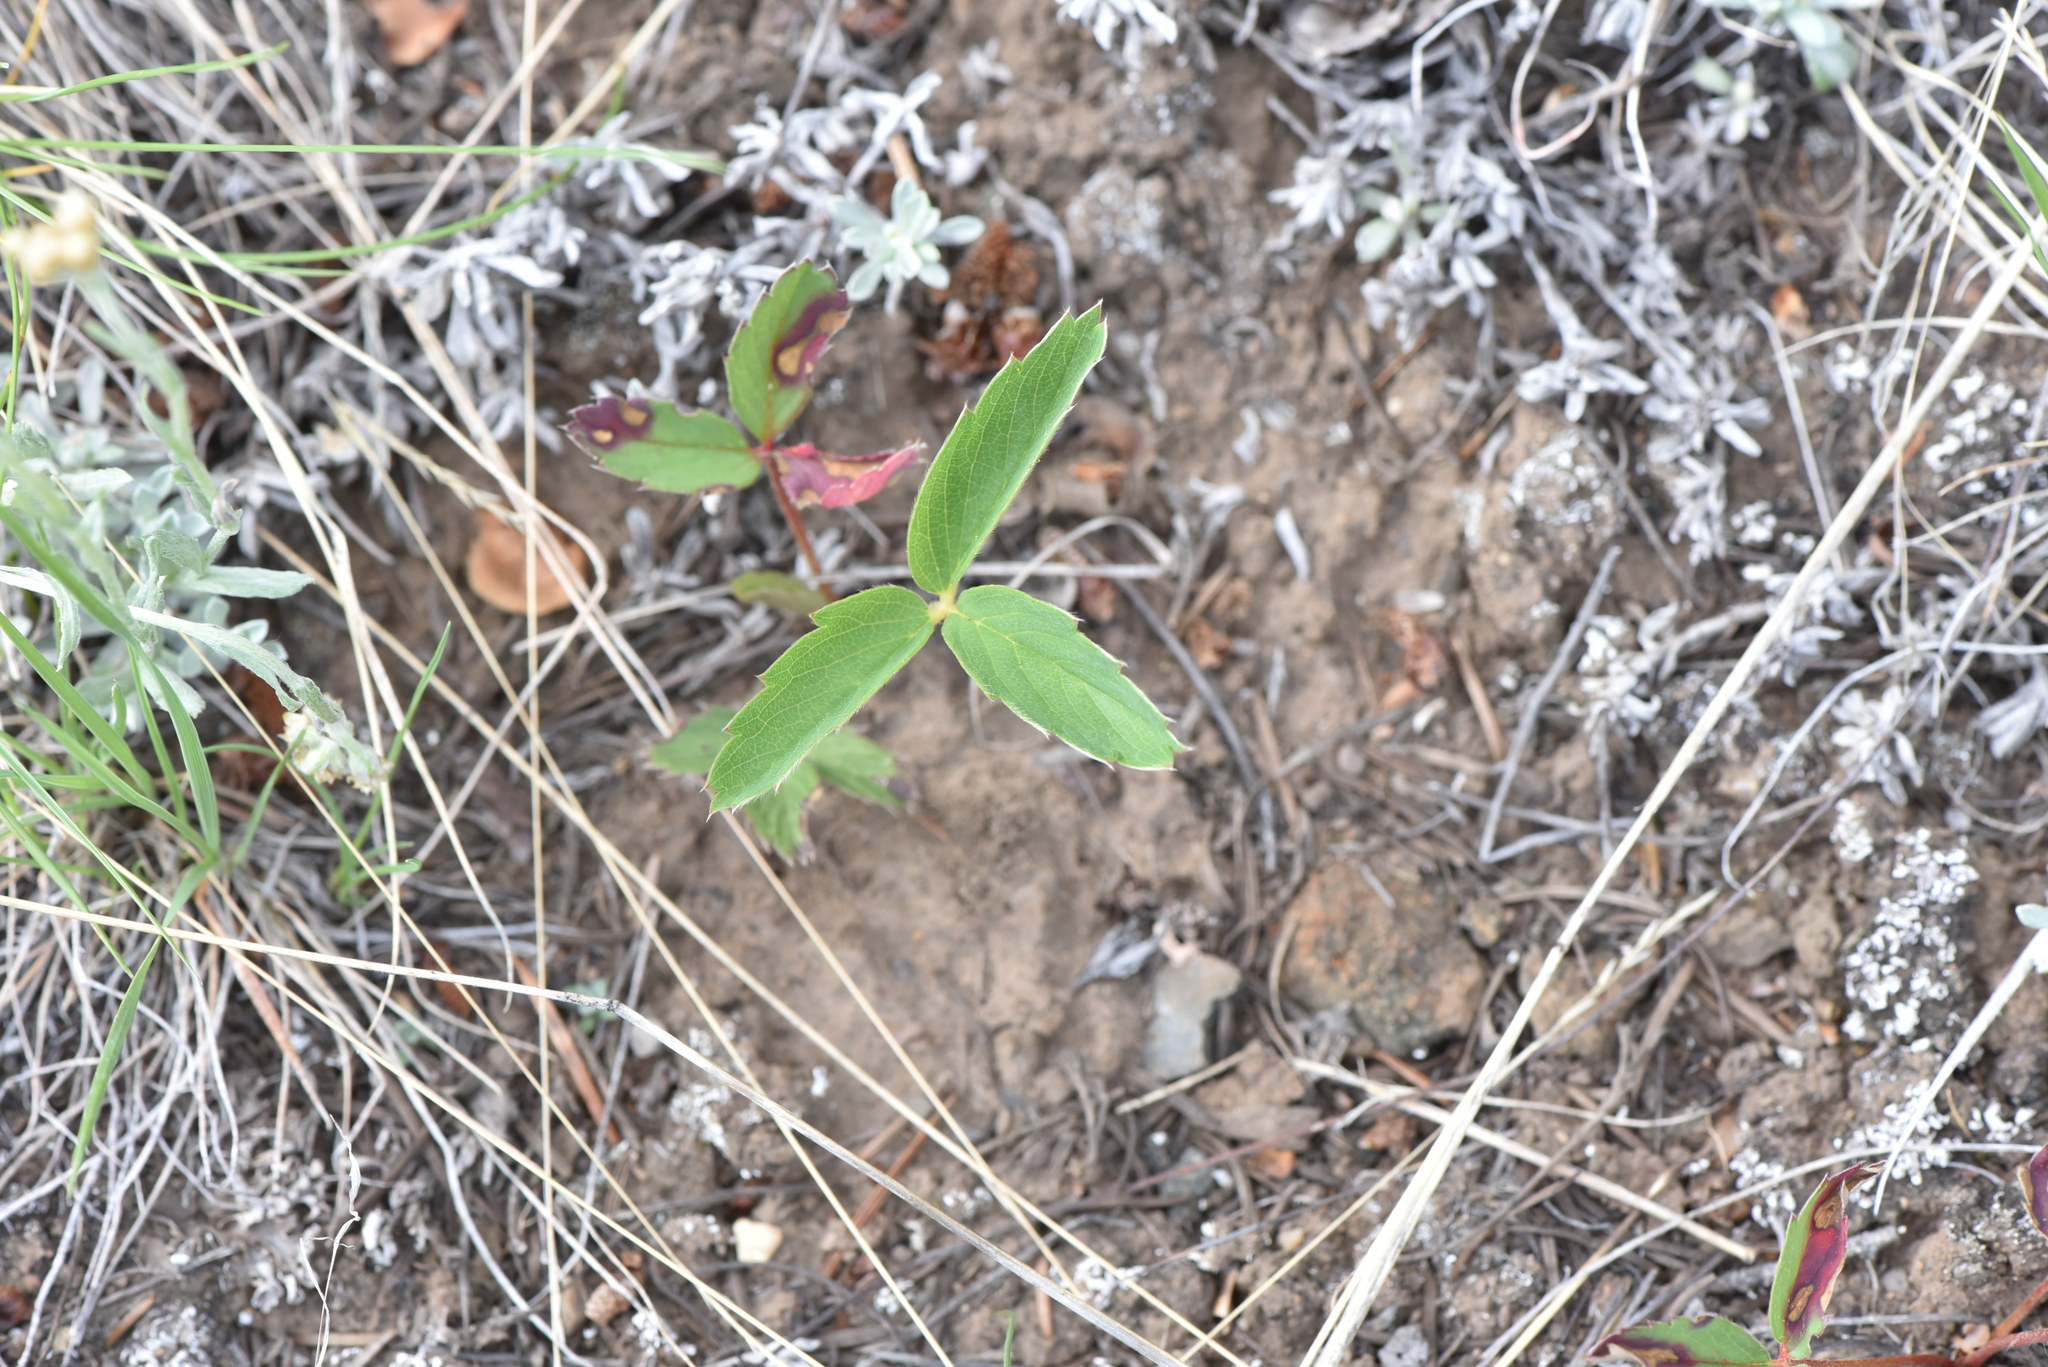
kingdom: Plantae
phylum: Tracheophyta
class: Magnoliopsida
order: Rosales
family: Rosaceae
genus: Fragaria
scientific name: Fragaria virginiana
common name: Thickleaved wild strawberry
